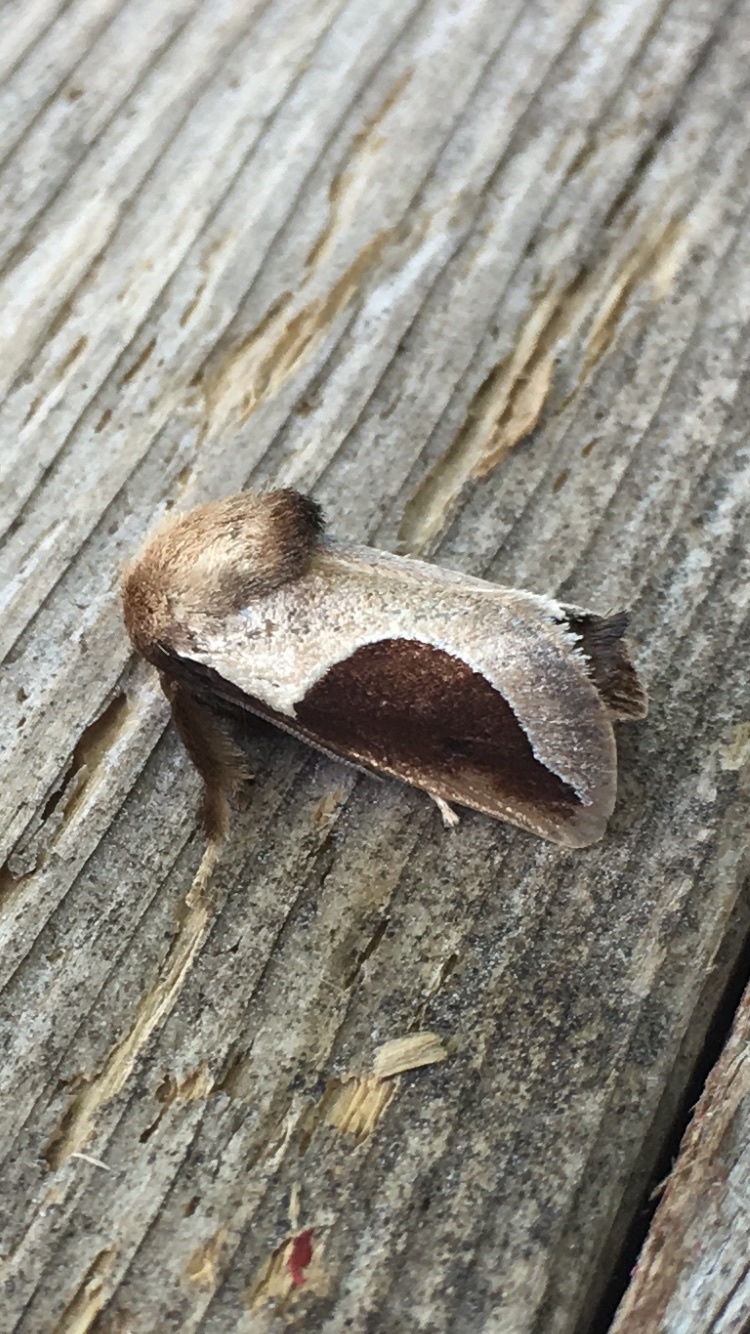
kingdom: Animalia
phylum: Arthropoda
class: Insecta
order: Lepidoptera
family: Limacodidae
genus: Prolimacodes
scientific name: Prolimacodes badia
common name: Skiff moth
